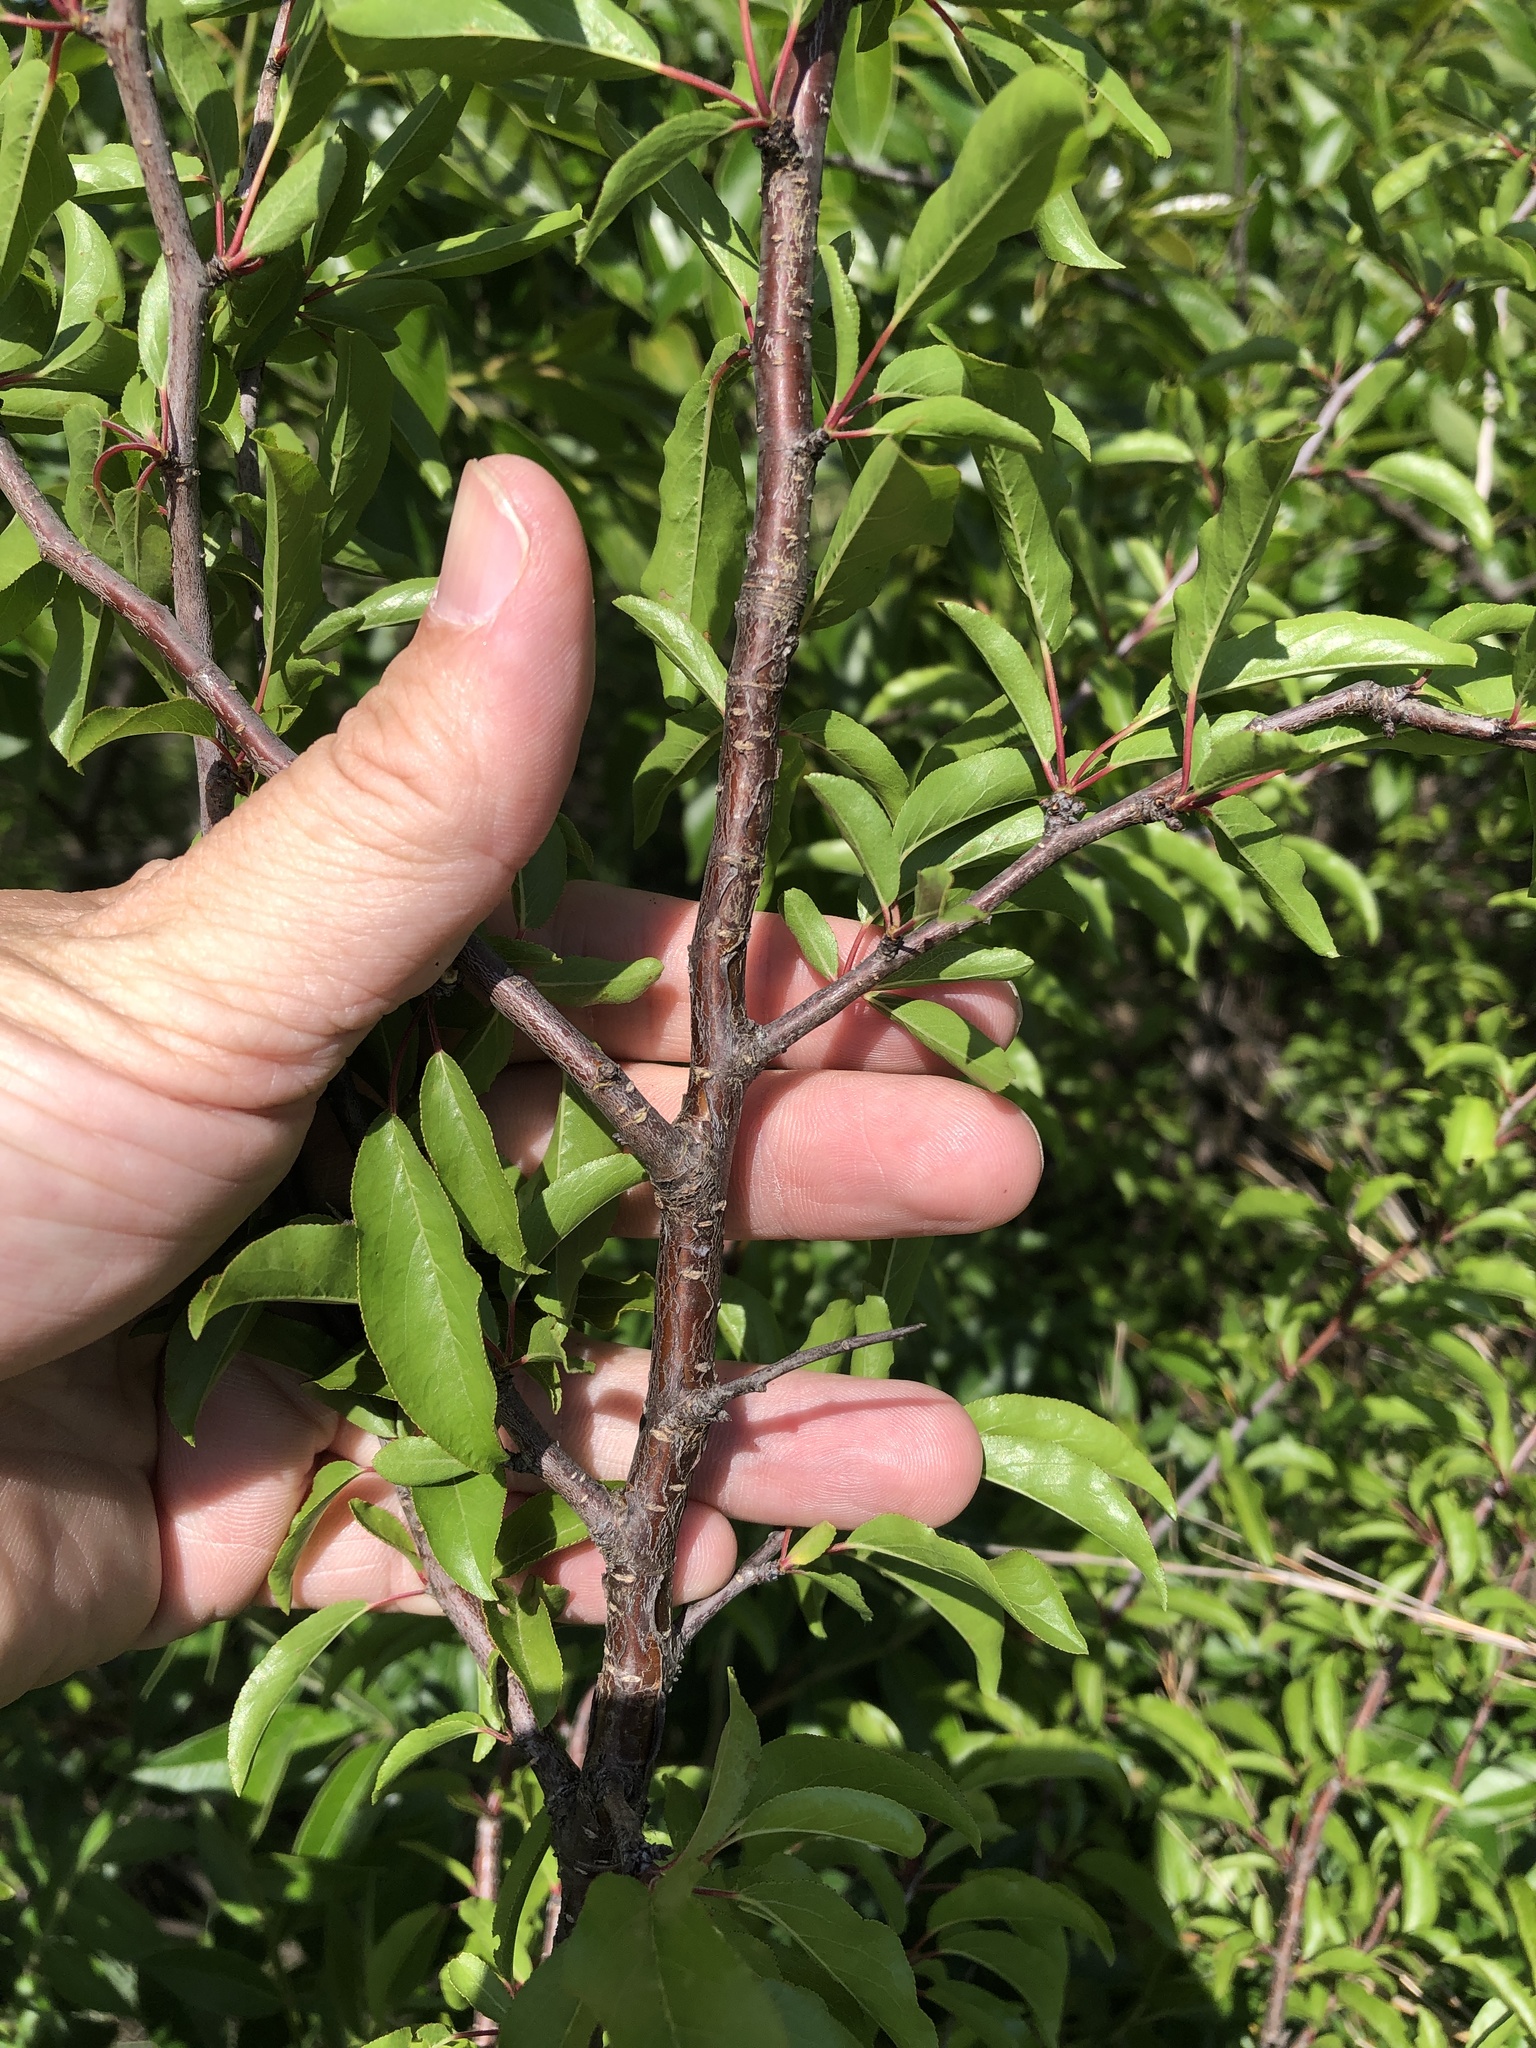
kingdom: Plantae
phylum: Tracheophyta
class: Magnoliopsida
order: Rosales
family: Rosaceae
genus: Prunus
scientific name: Prunus angustifolia
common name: Cherokee plum
